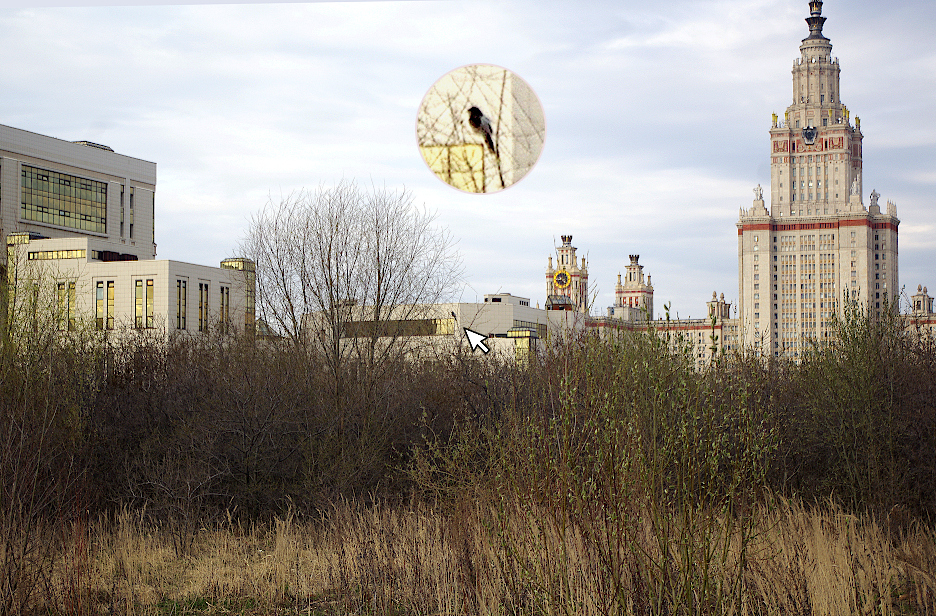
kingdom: Animalia
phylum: Chordata
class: Aves
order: Passeriformes
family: Corvidae
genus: Pica
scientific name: Pica pica
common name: Eurasian magpie
